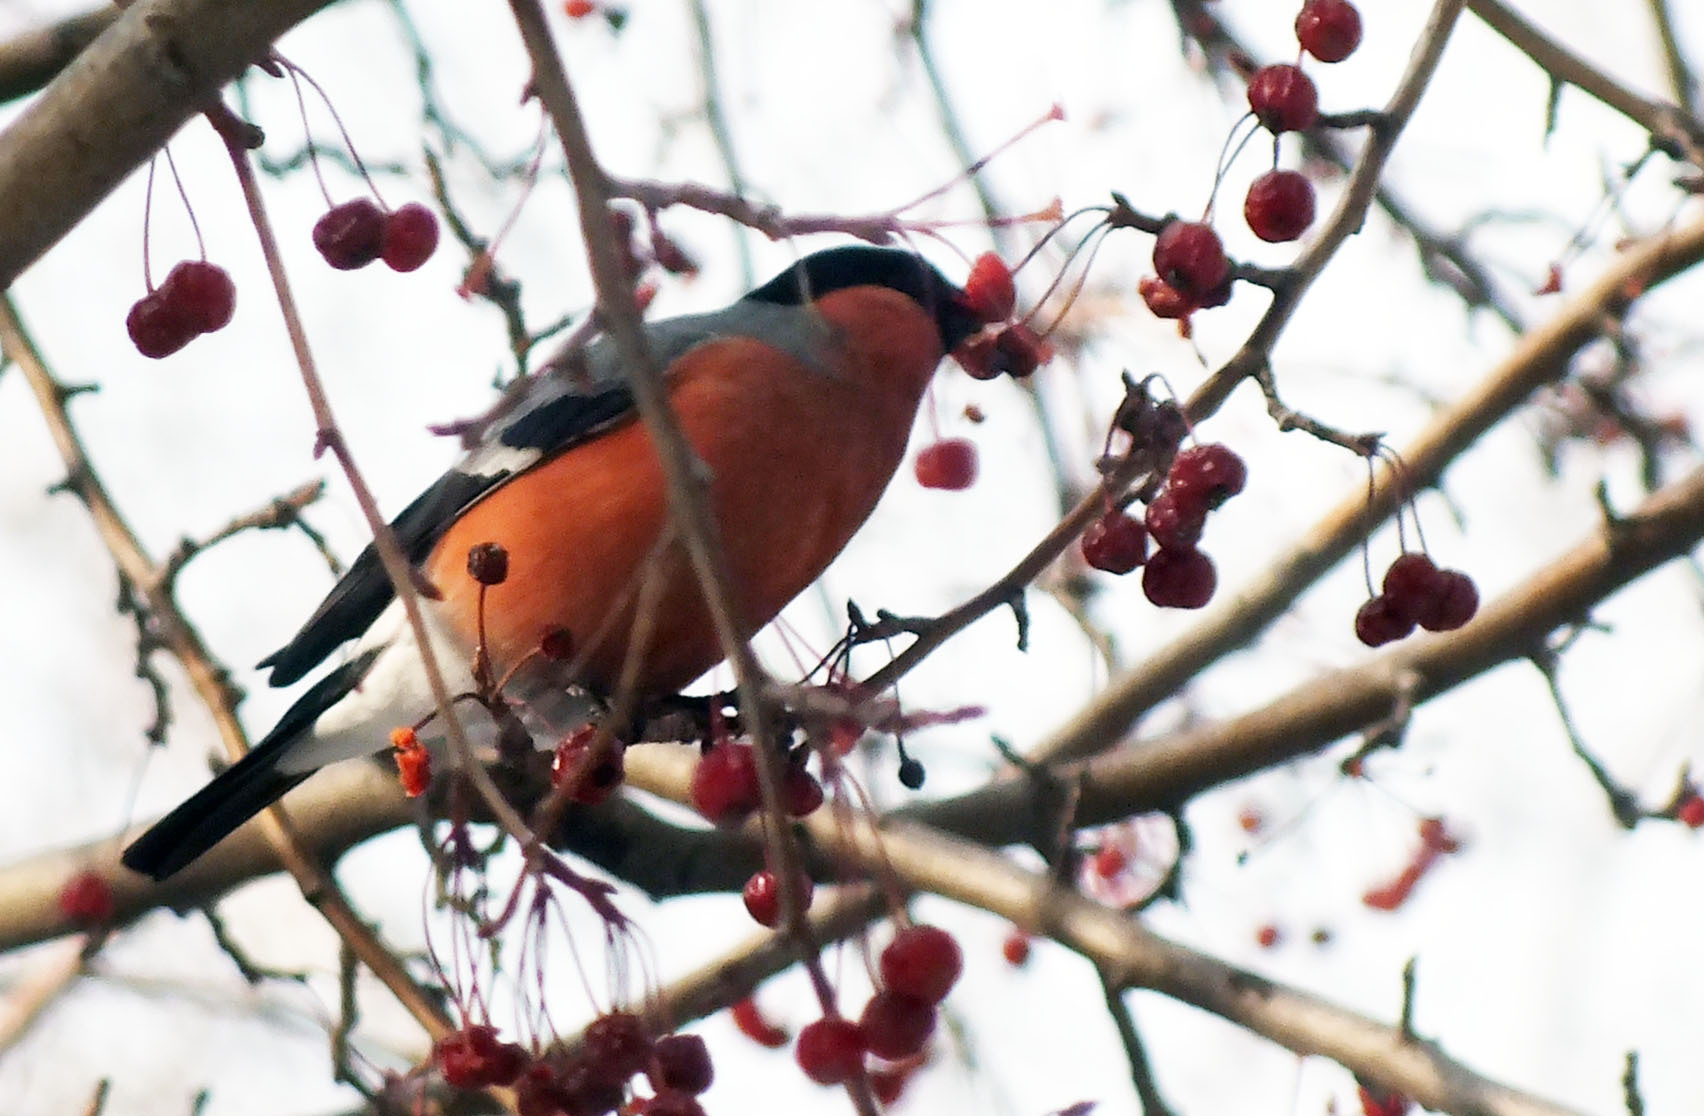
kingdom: Animalia
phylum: Chordata
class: Aves
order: Passeriformes
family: Fringillidae
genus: Pyrrhula
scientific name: Pyrrhula pyrrhula
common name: Eurasian bullfinch
